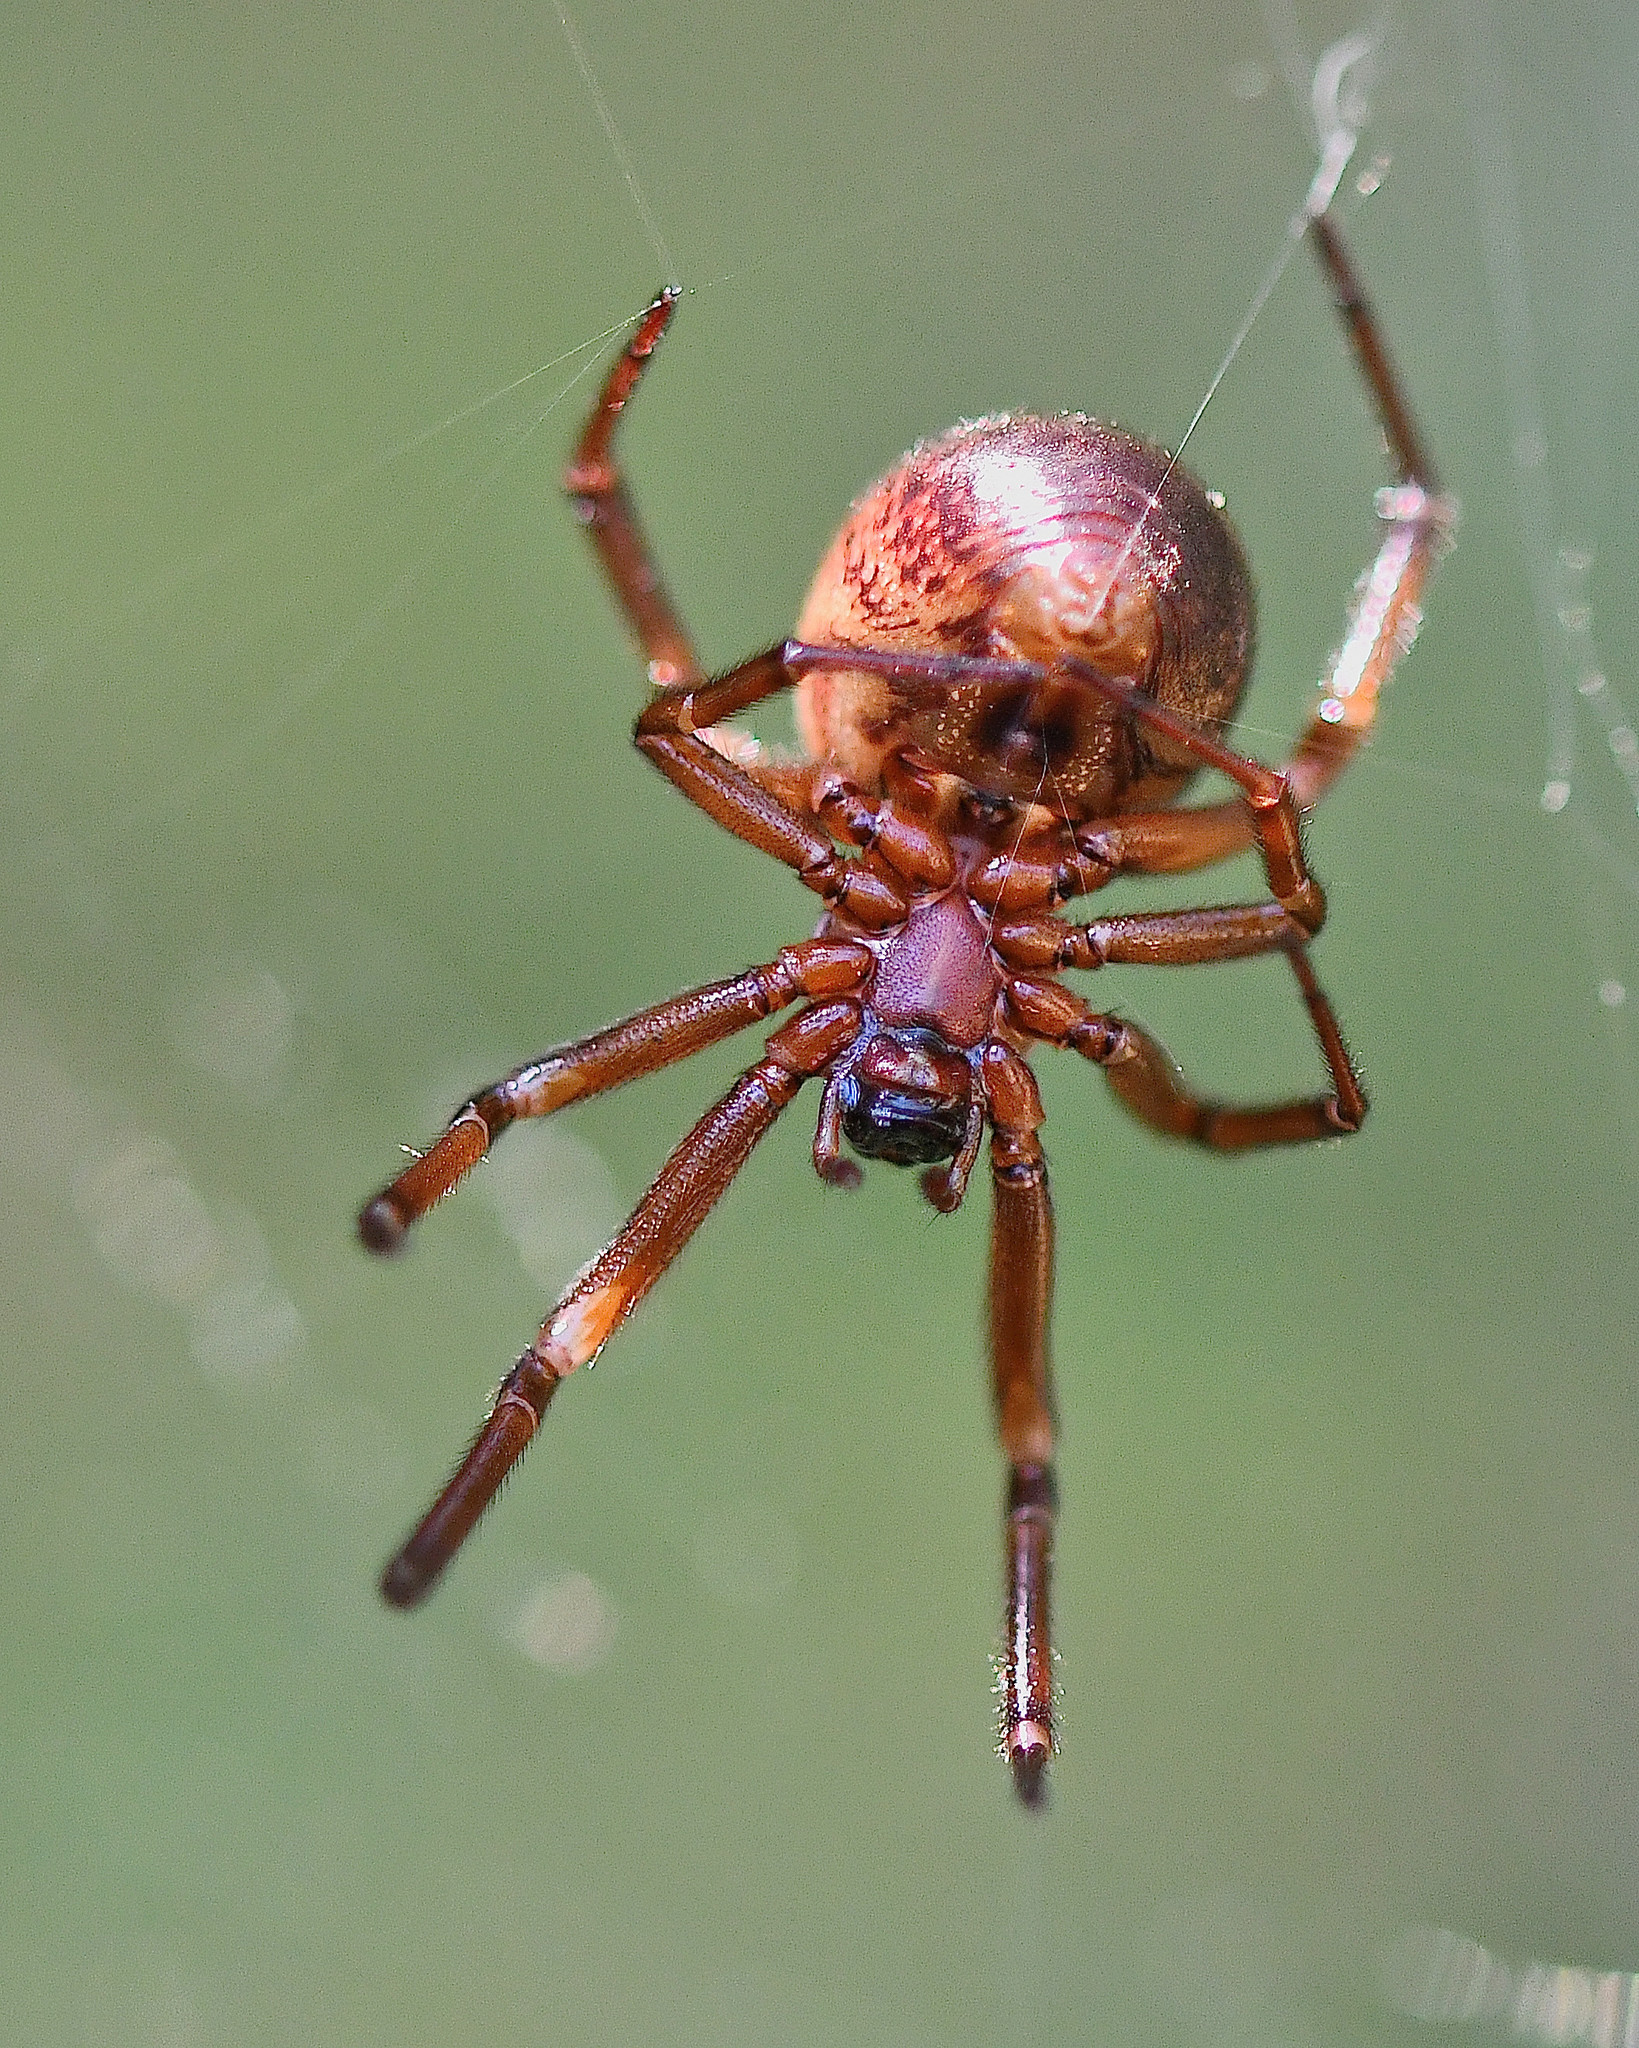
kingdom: Animalia
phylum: Arthropoda
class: Arachnida
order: Araneae
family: Theridiidae
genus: Steatoda
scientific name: Steatoda nobilis
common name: Cobweb weaver
